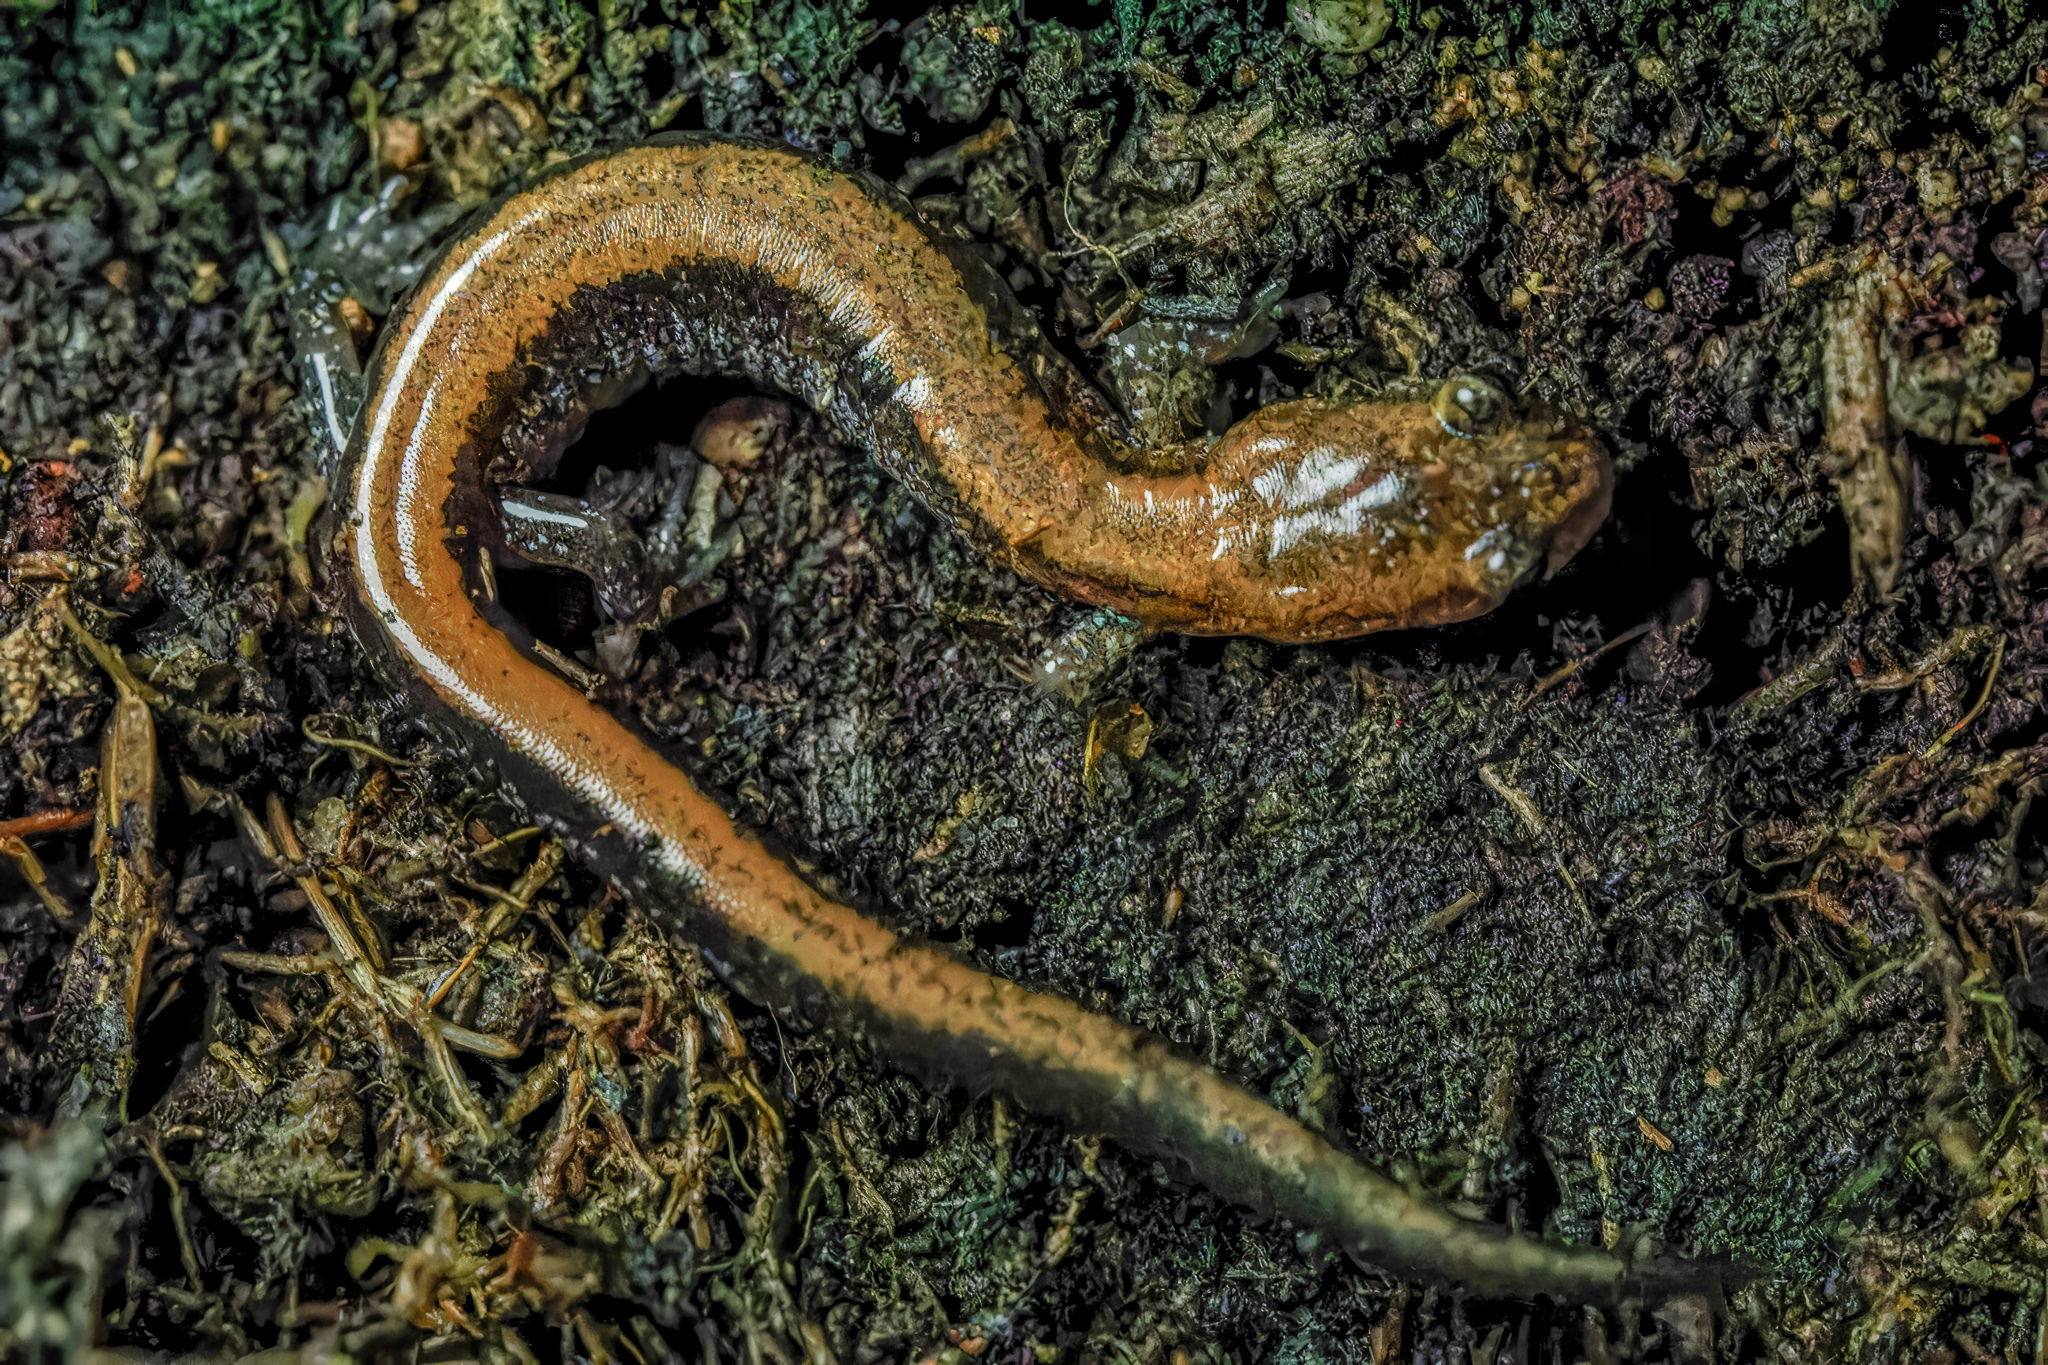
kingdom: Animalia
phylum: Chordata
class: Amphibia
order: Caudata
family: Plethodontidae
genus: Plethodon
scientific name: Plethodon cinereus
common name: Redback salamander
